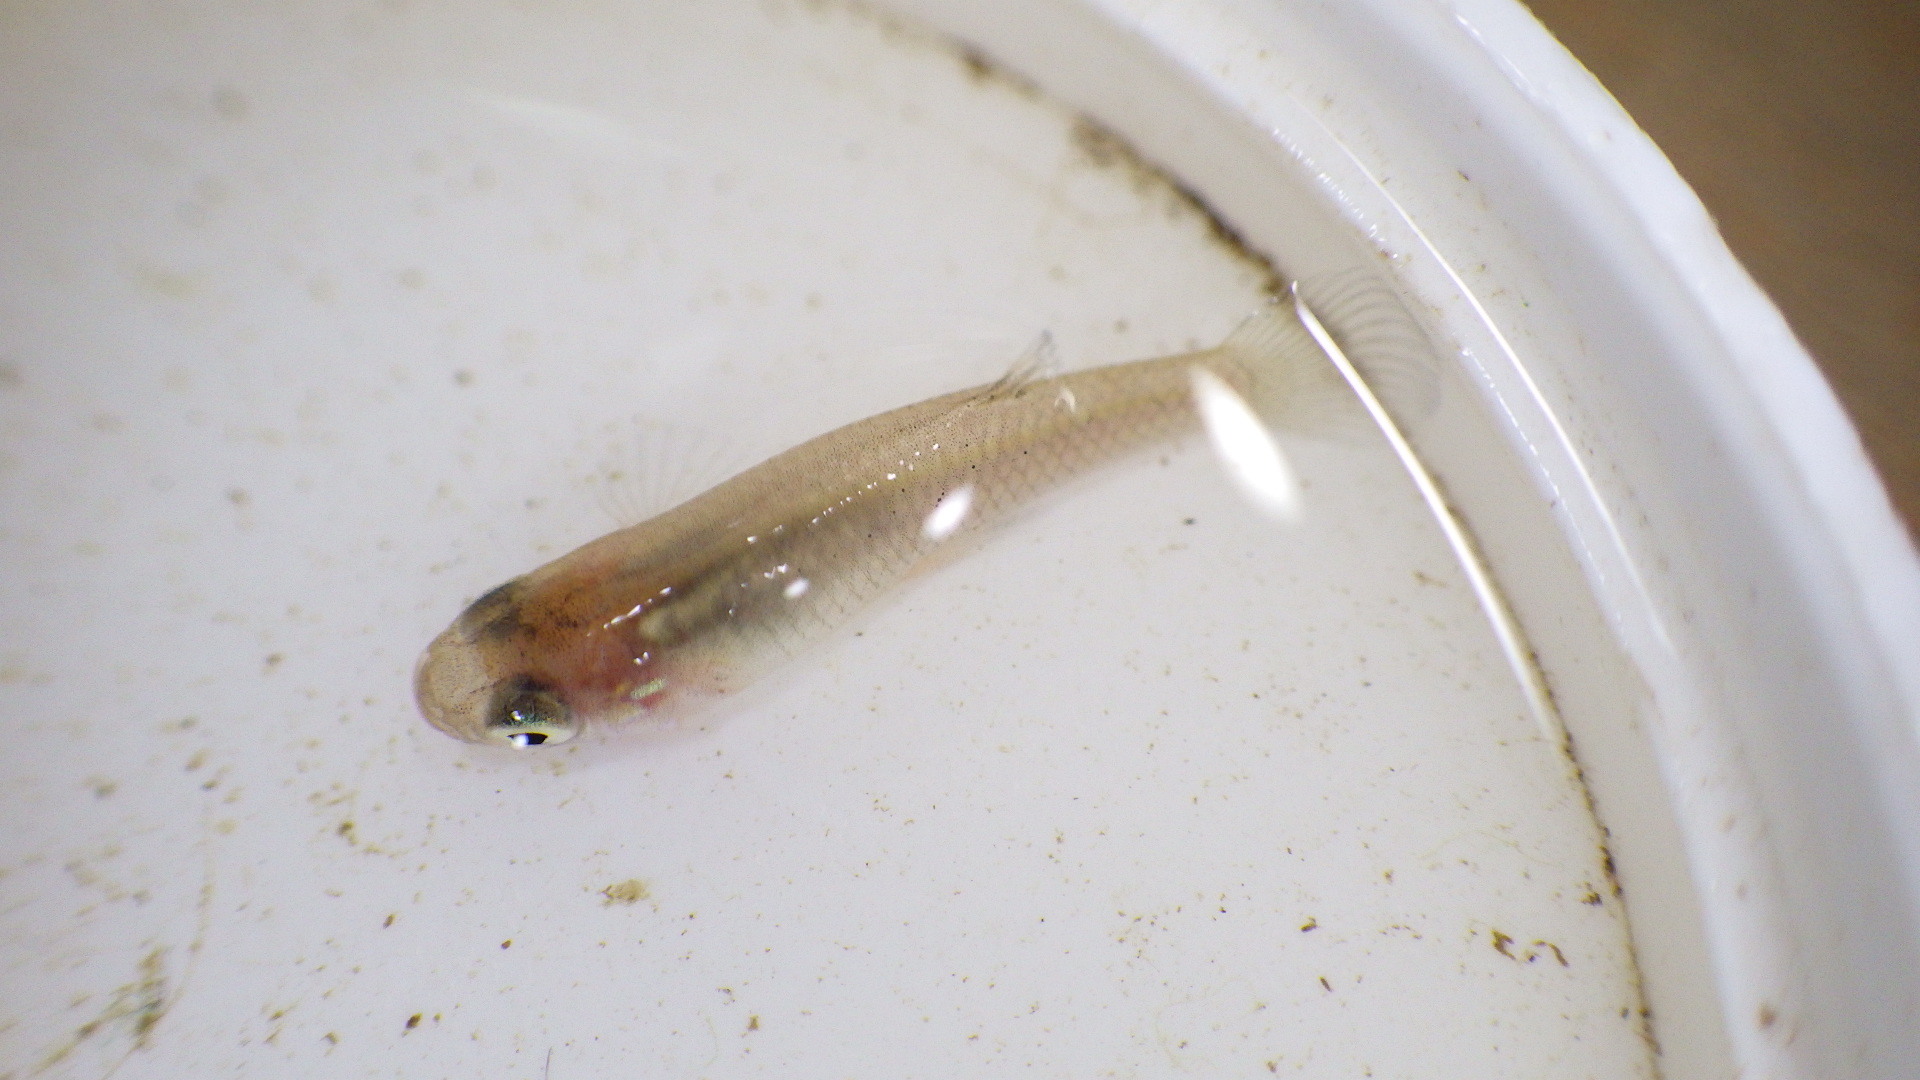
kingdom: Animalia
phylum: Chordata
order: Cyprinodontiformes
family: Poeciliidae
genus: Gambusia
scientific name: Gambusia holbrooki
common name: Eastern mosquitofish
